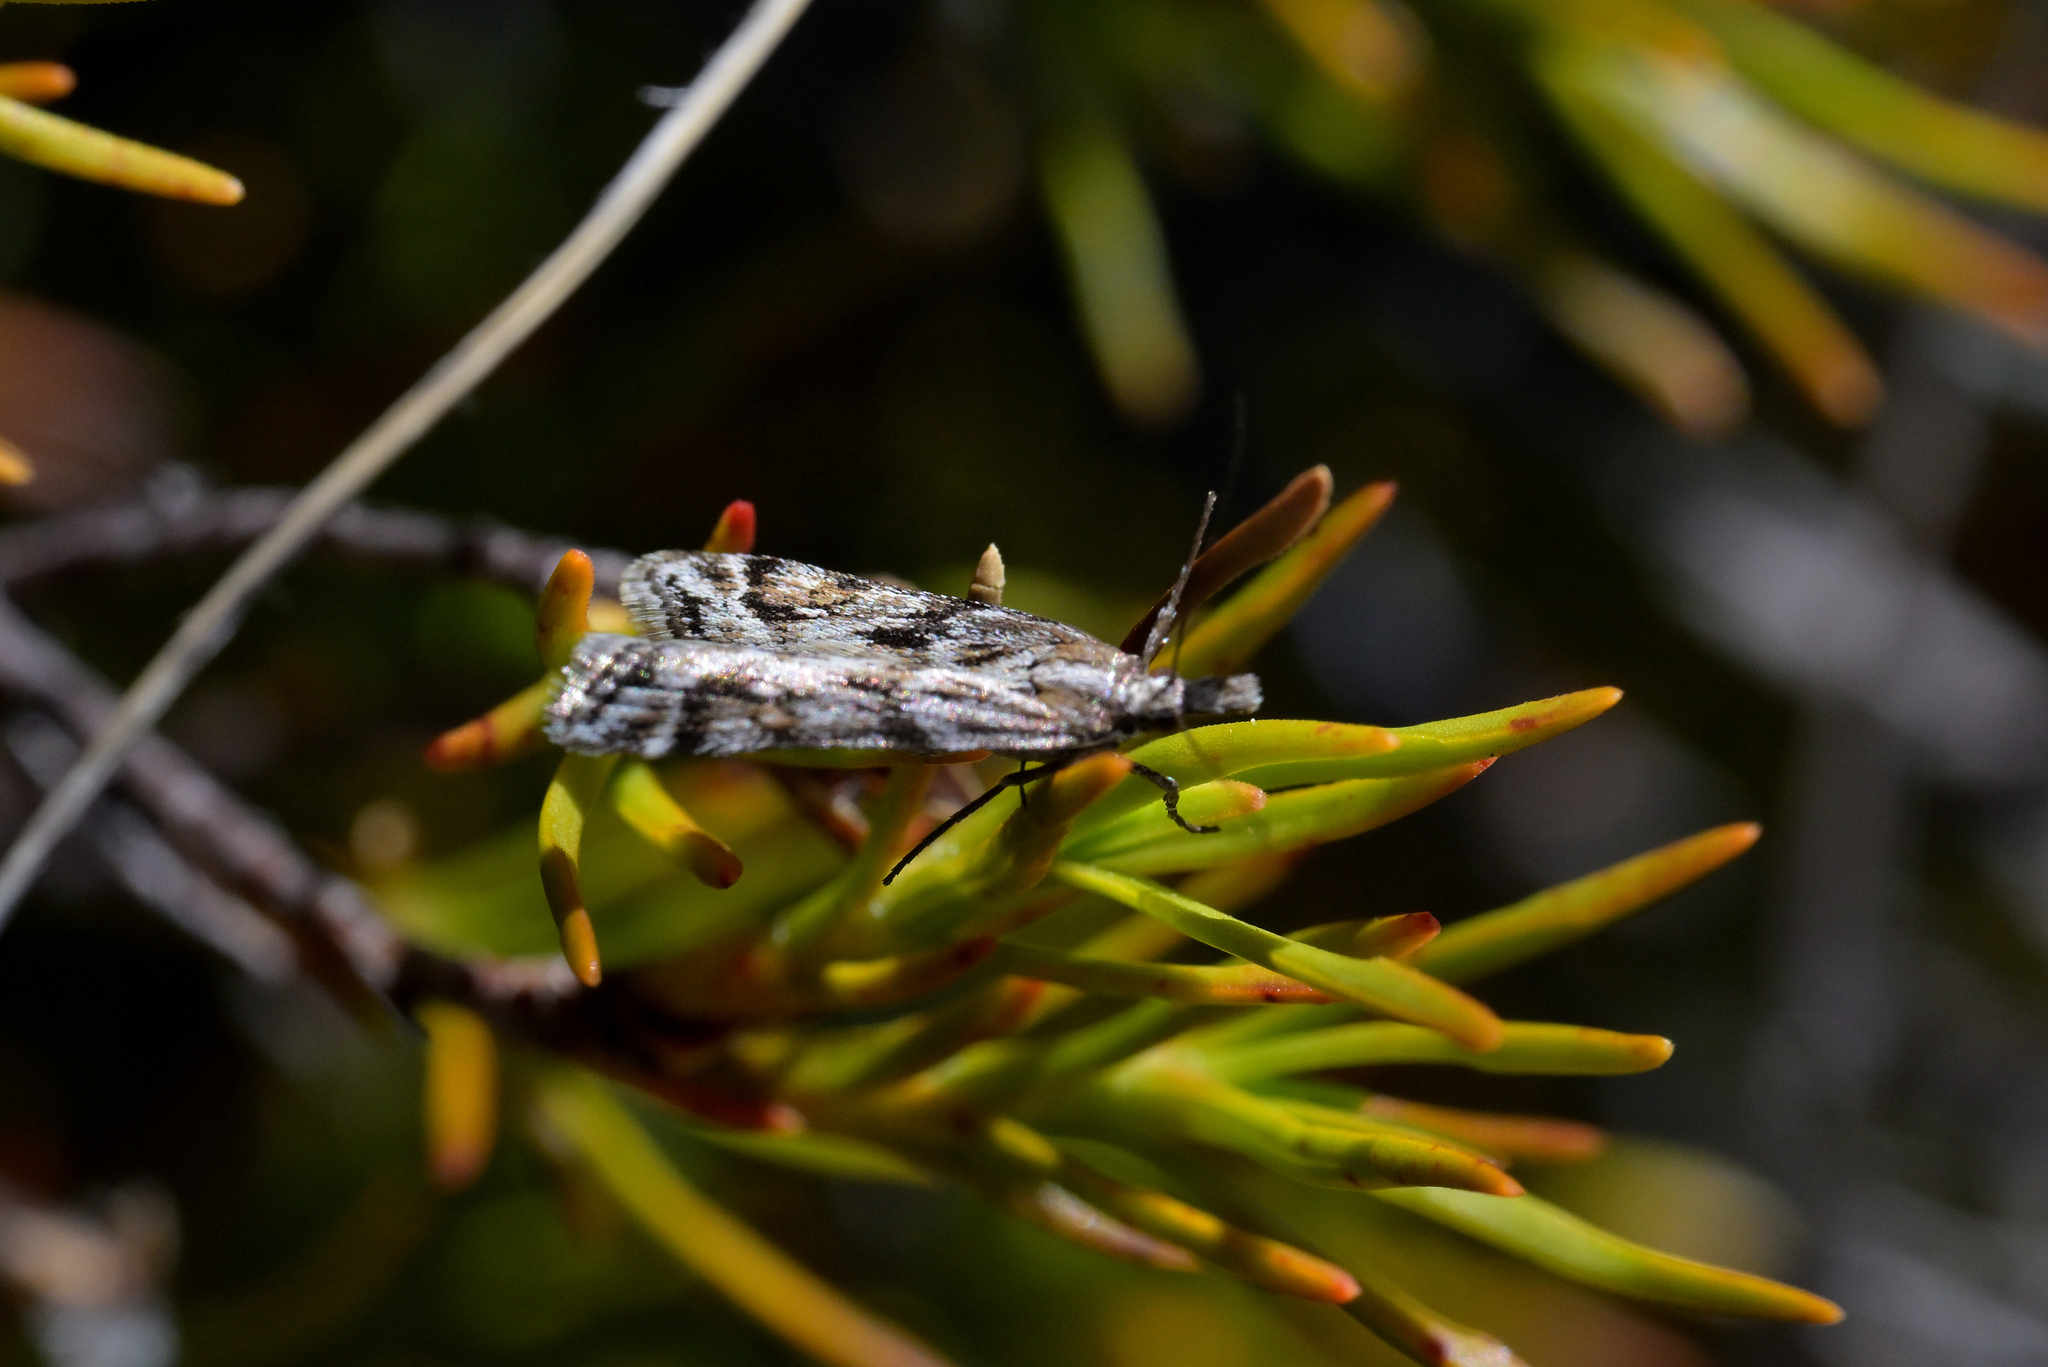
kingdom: Animalia
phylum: Arthropoda
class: Insecta
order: Lepidoptera
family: Crambidae
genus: Scoparia
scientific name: Scoparia exilis
